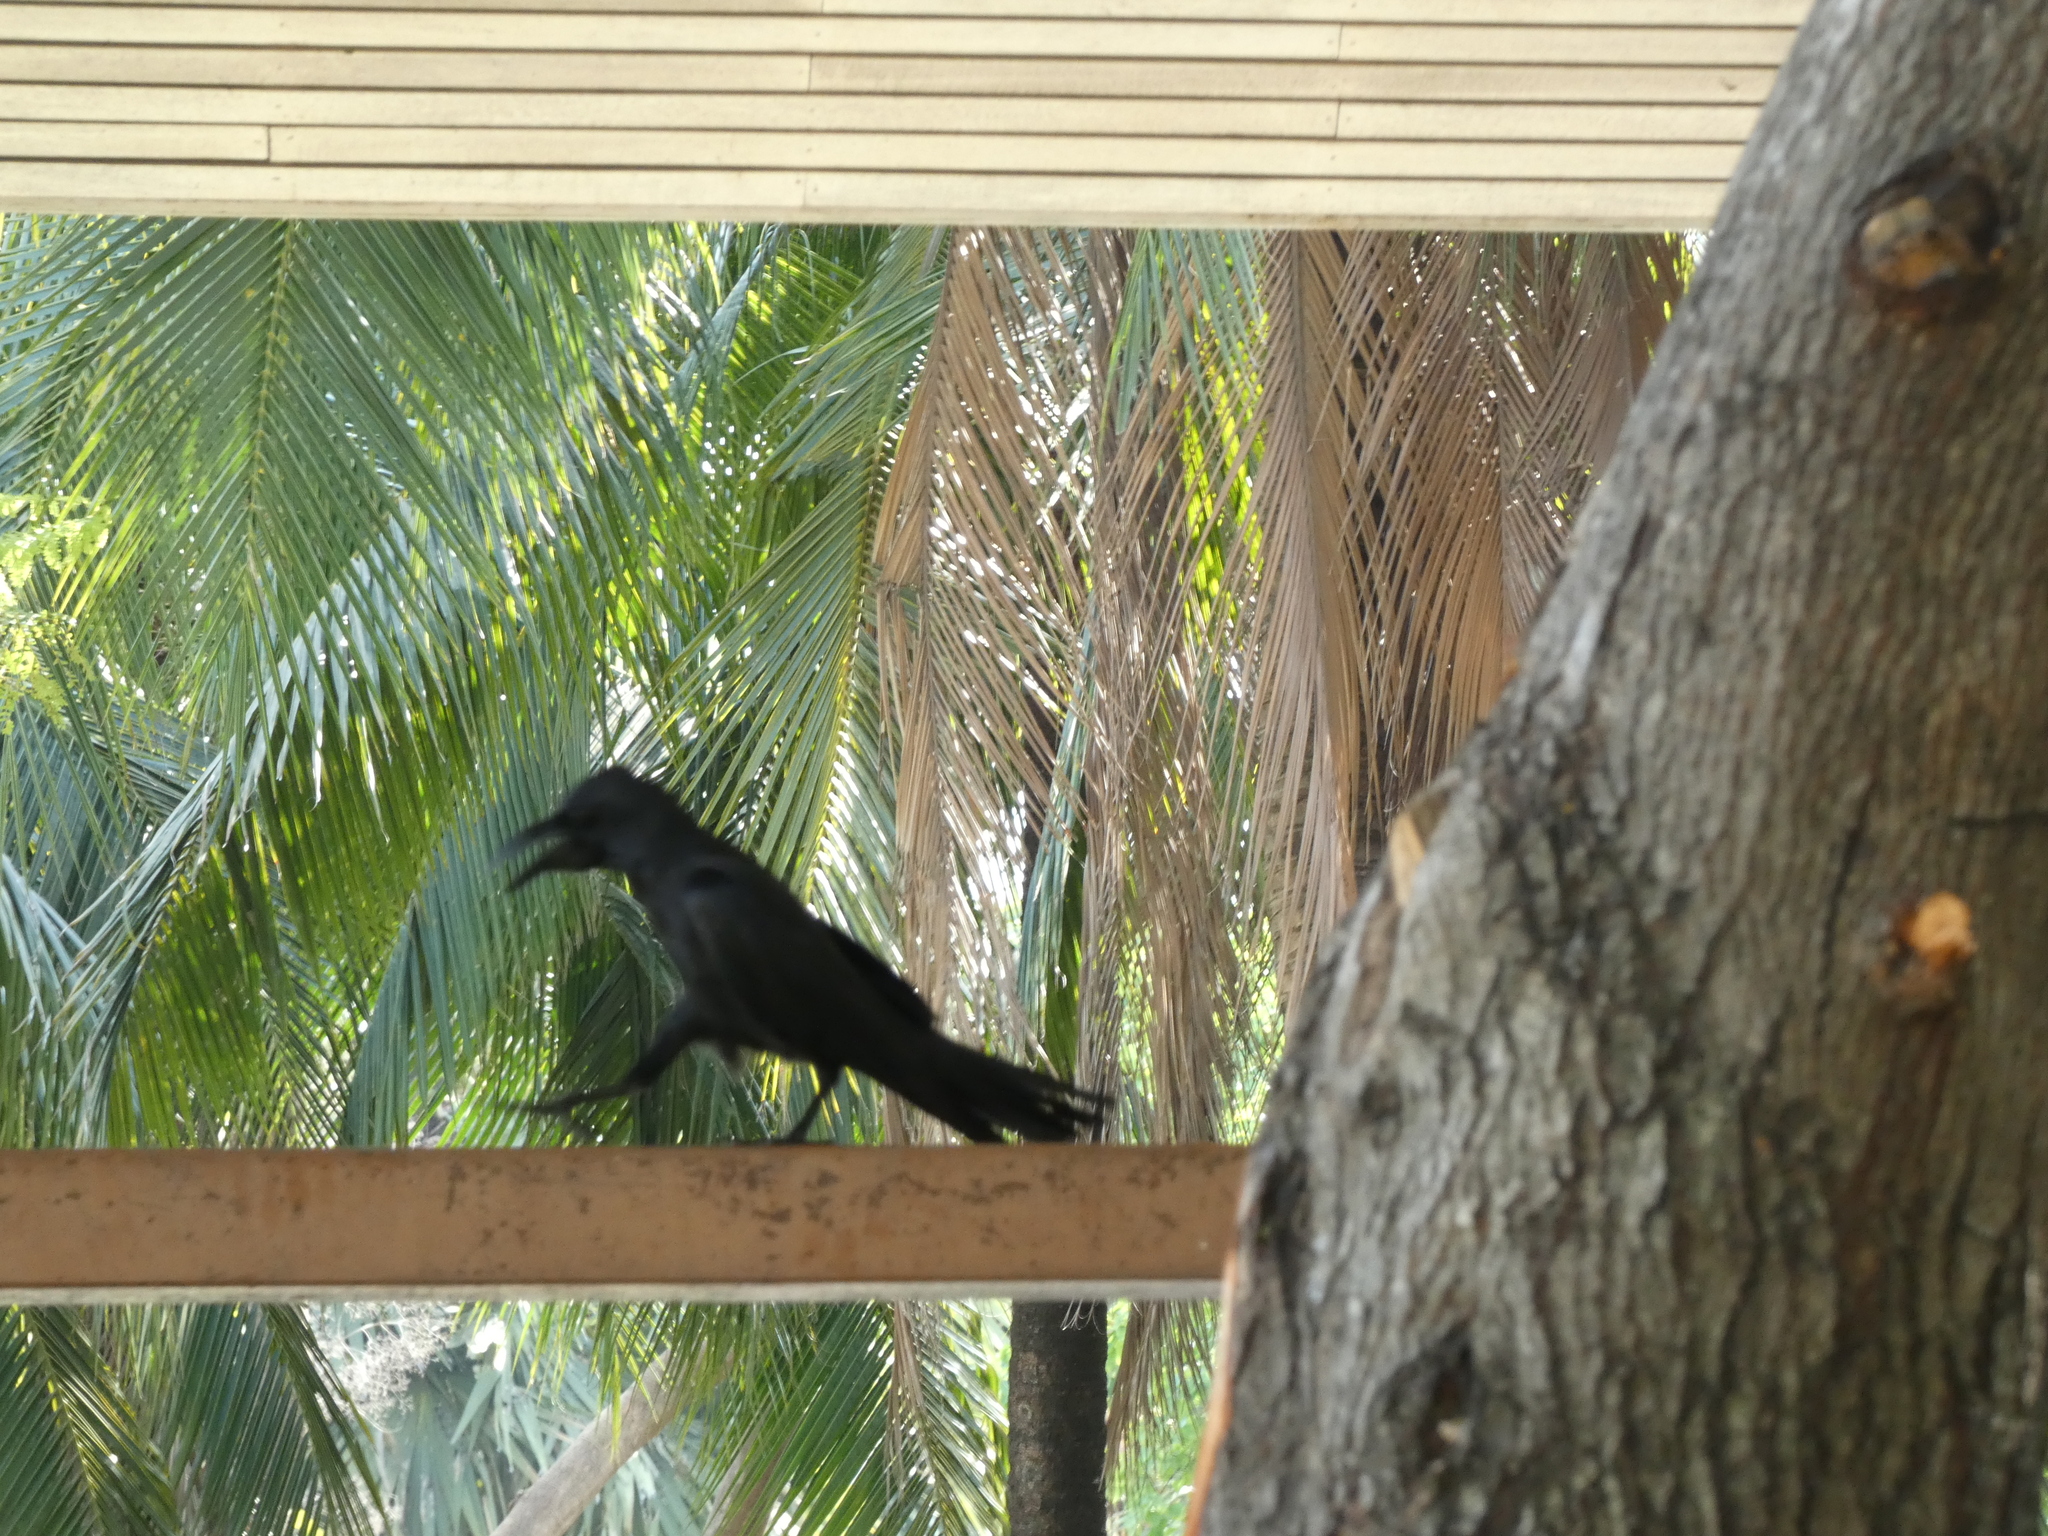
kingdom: Animalia
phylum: Chordata
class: Aves
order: Passeriformes
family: Corvidae
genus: Corvus
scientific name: Corvus macrorhynchos
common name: Large-billed crow
